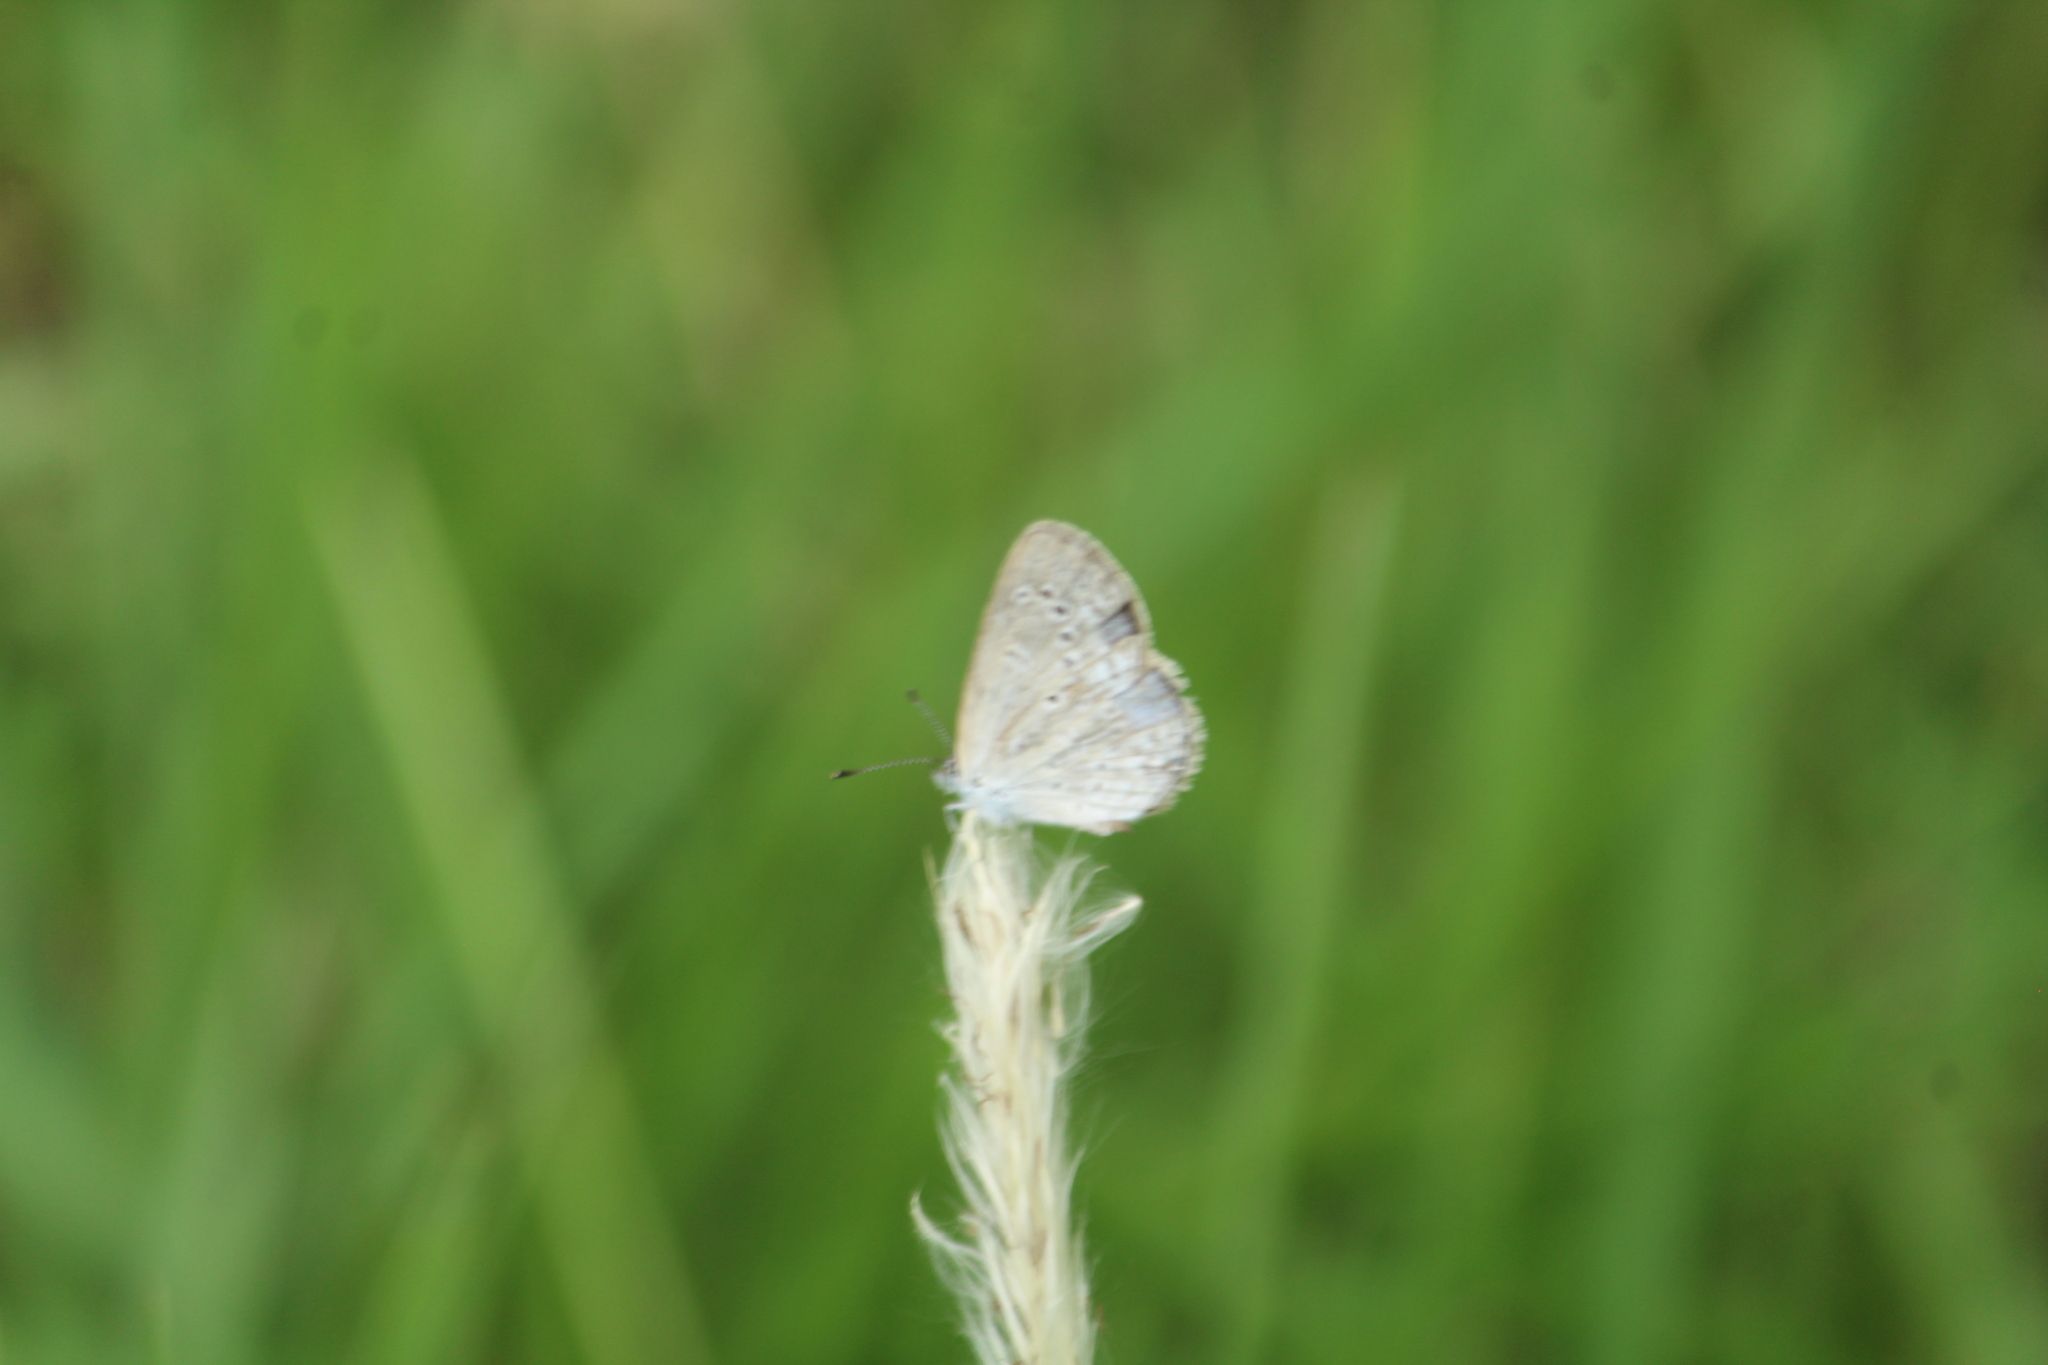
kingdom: Animalia
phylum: Arthropoda
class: Insecta
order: Lepidoptera
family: Lycaenidae
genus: Pseudozizeeria
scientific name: Pseudozizeeria maha
